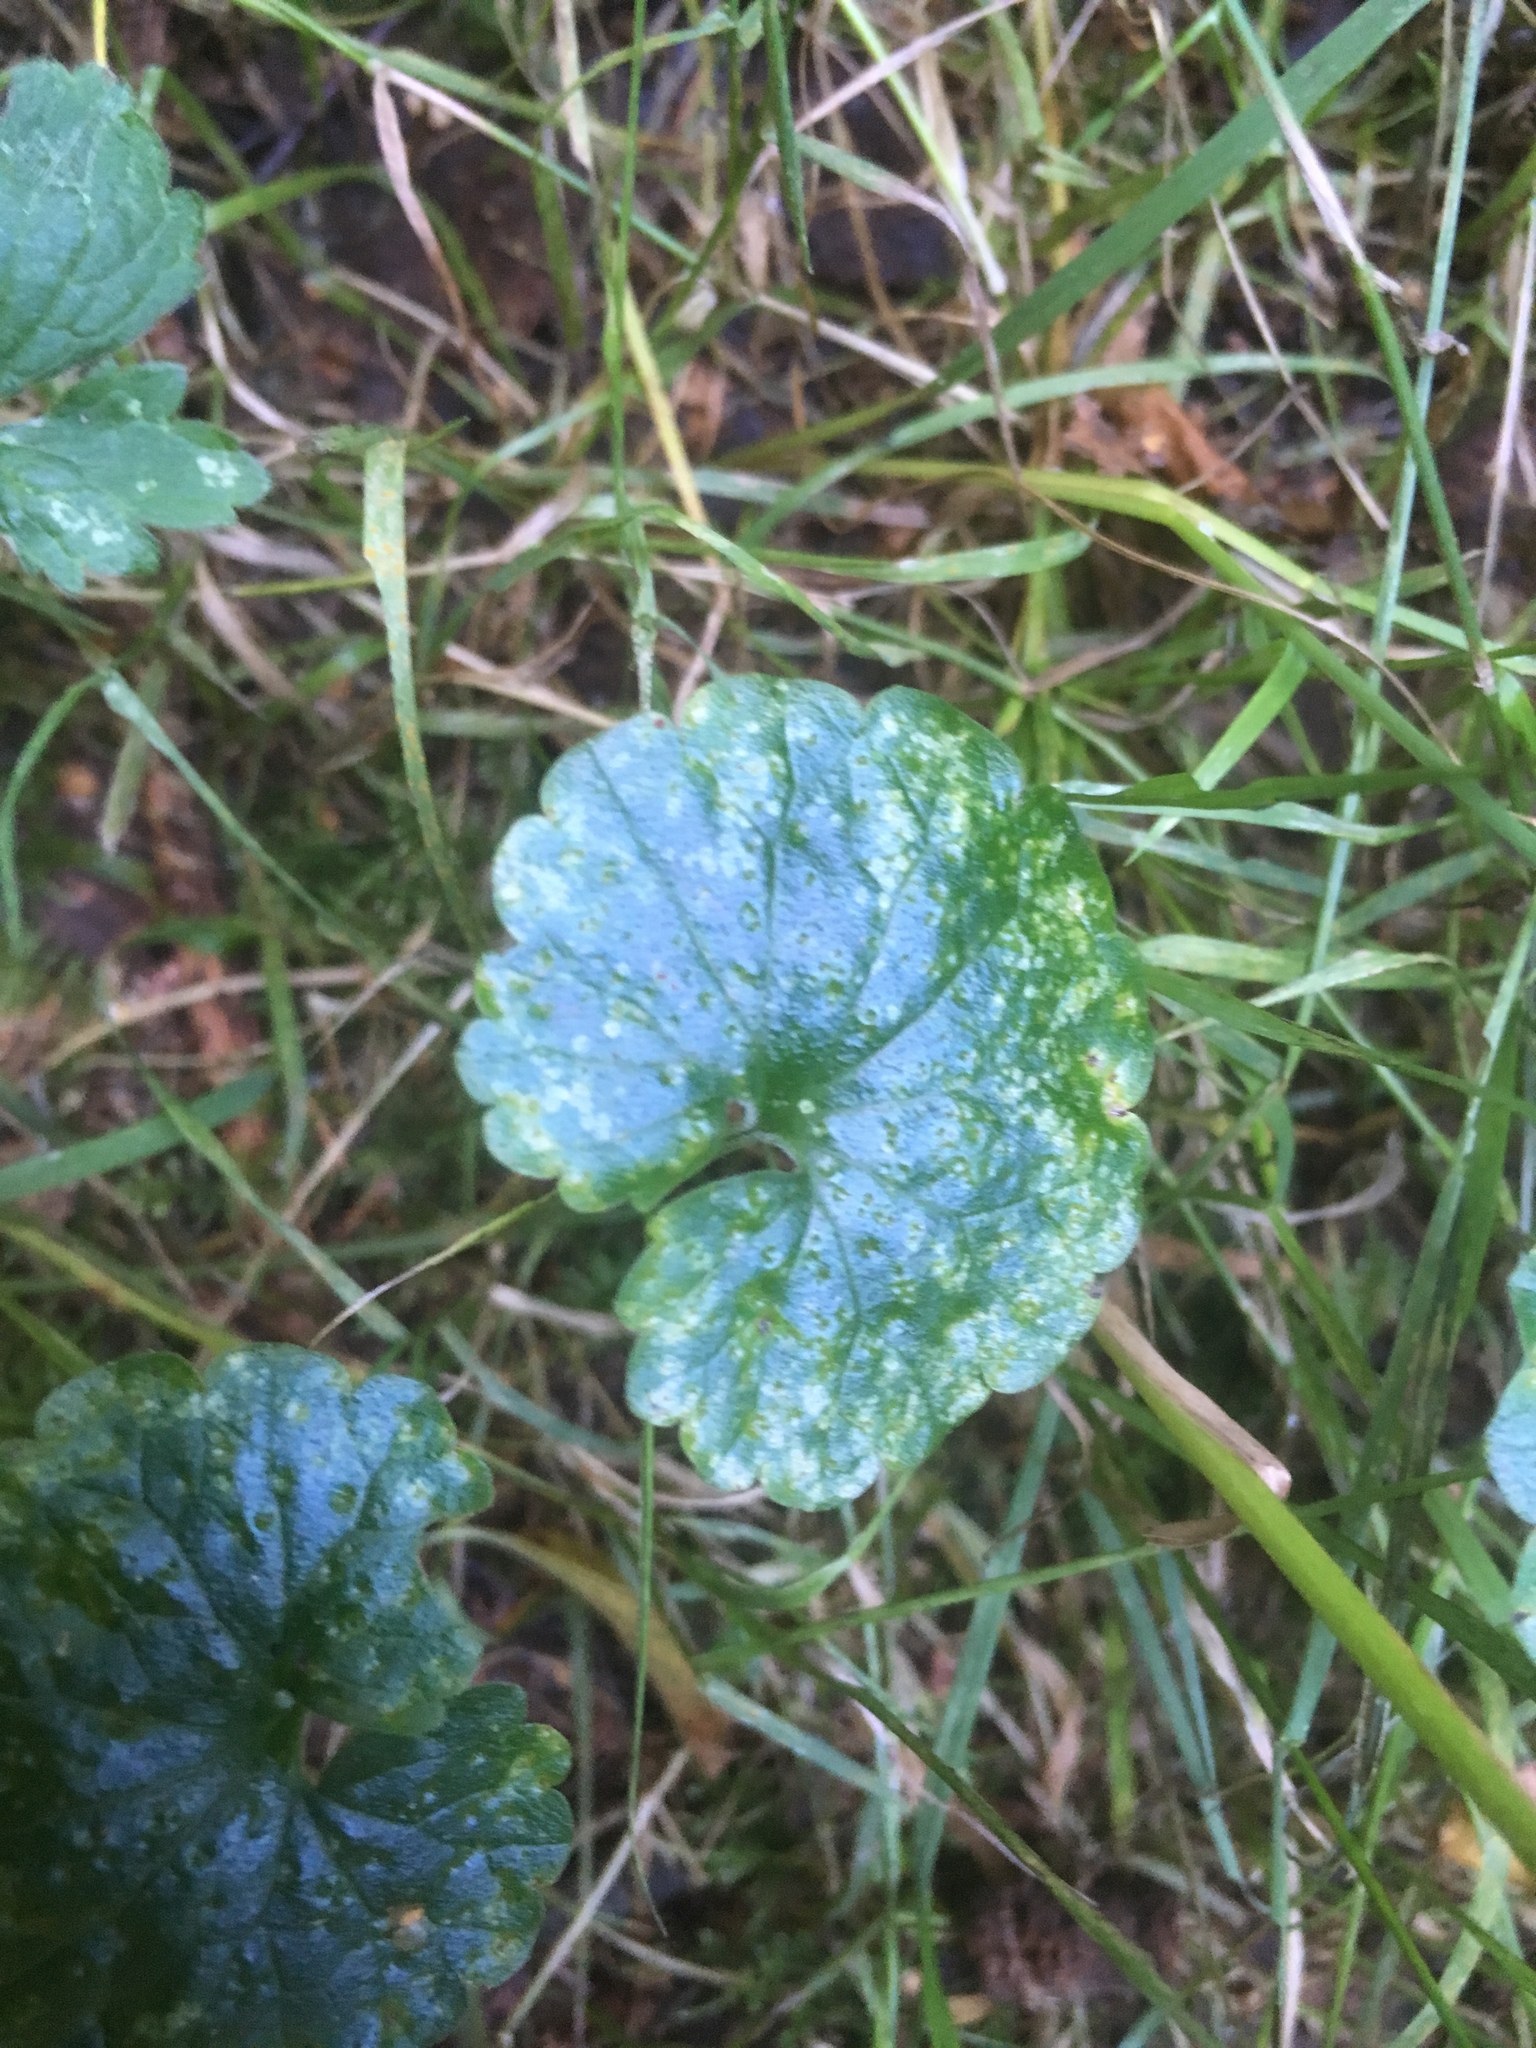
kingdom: Plantae
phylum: Tracheophyta
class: Magnoliopsida
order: Lamiales
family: Lamiaceae
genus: Glechoma
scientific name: Glechoma hederacea
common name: Ground ivy
